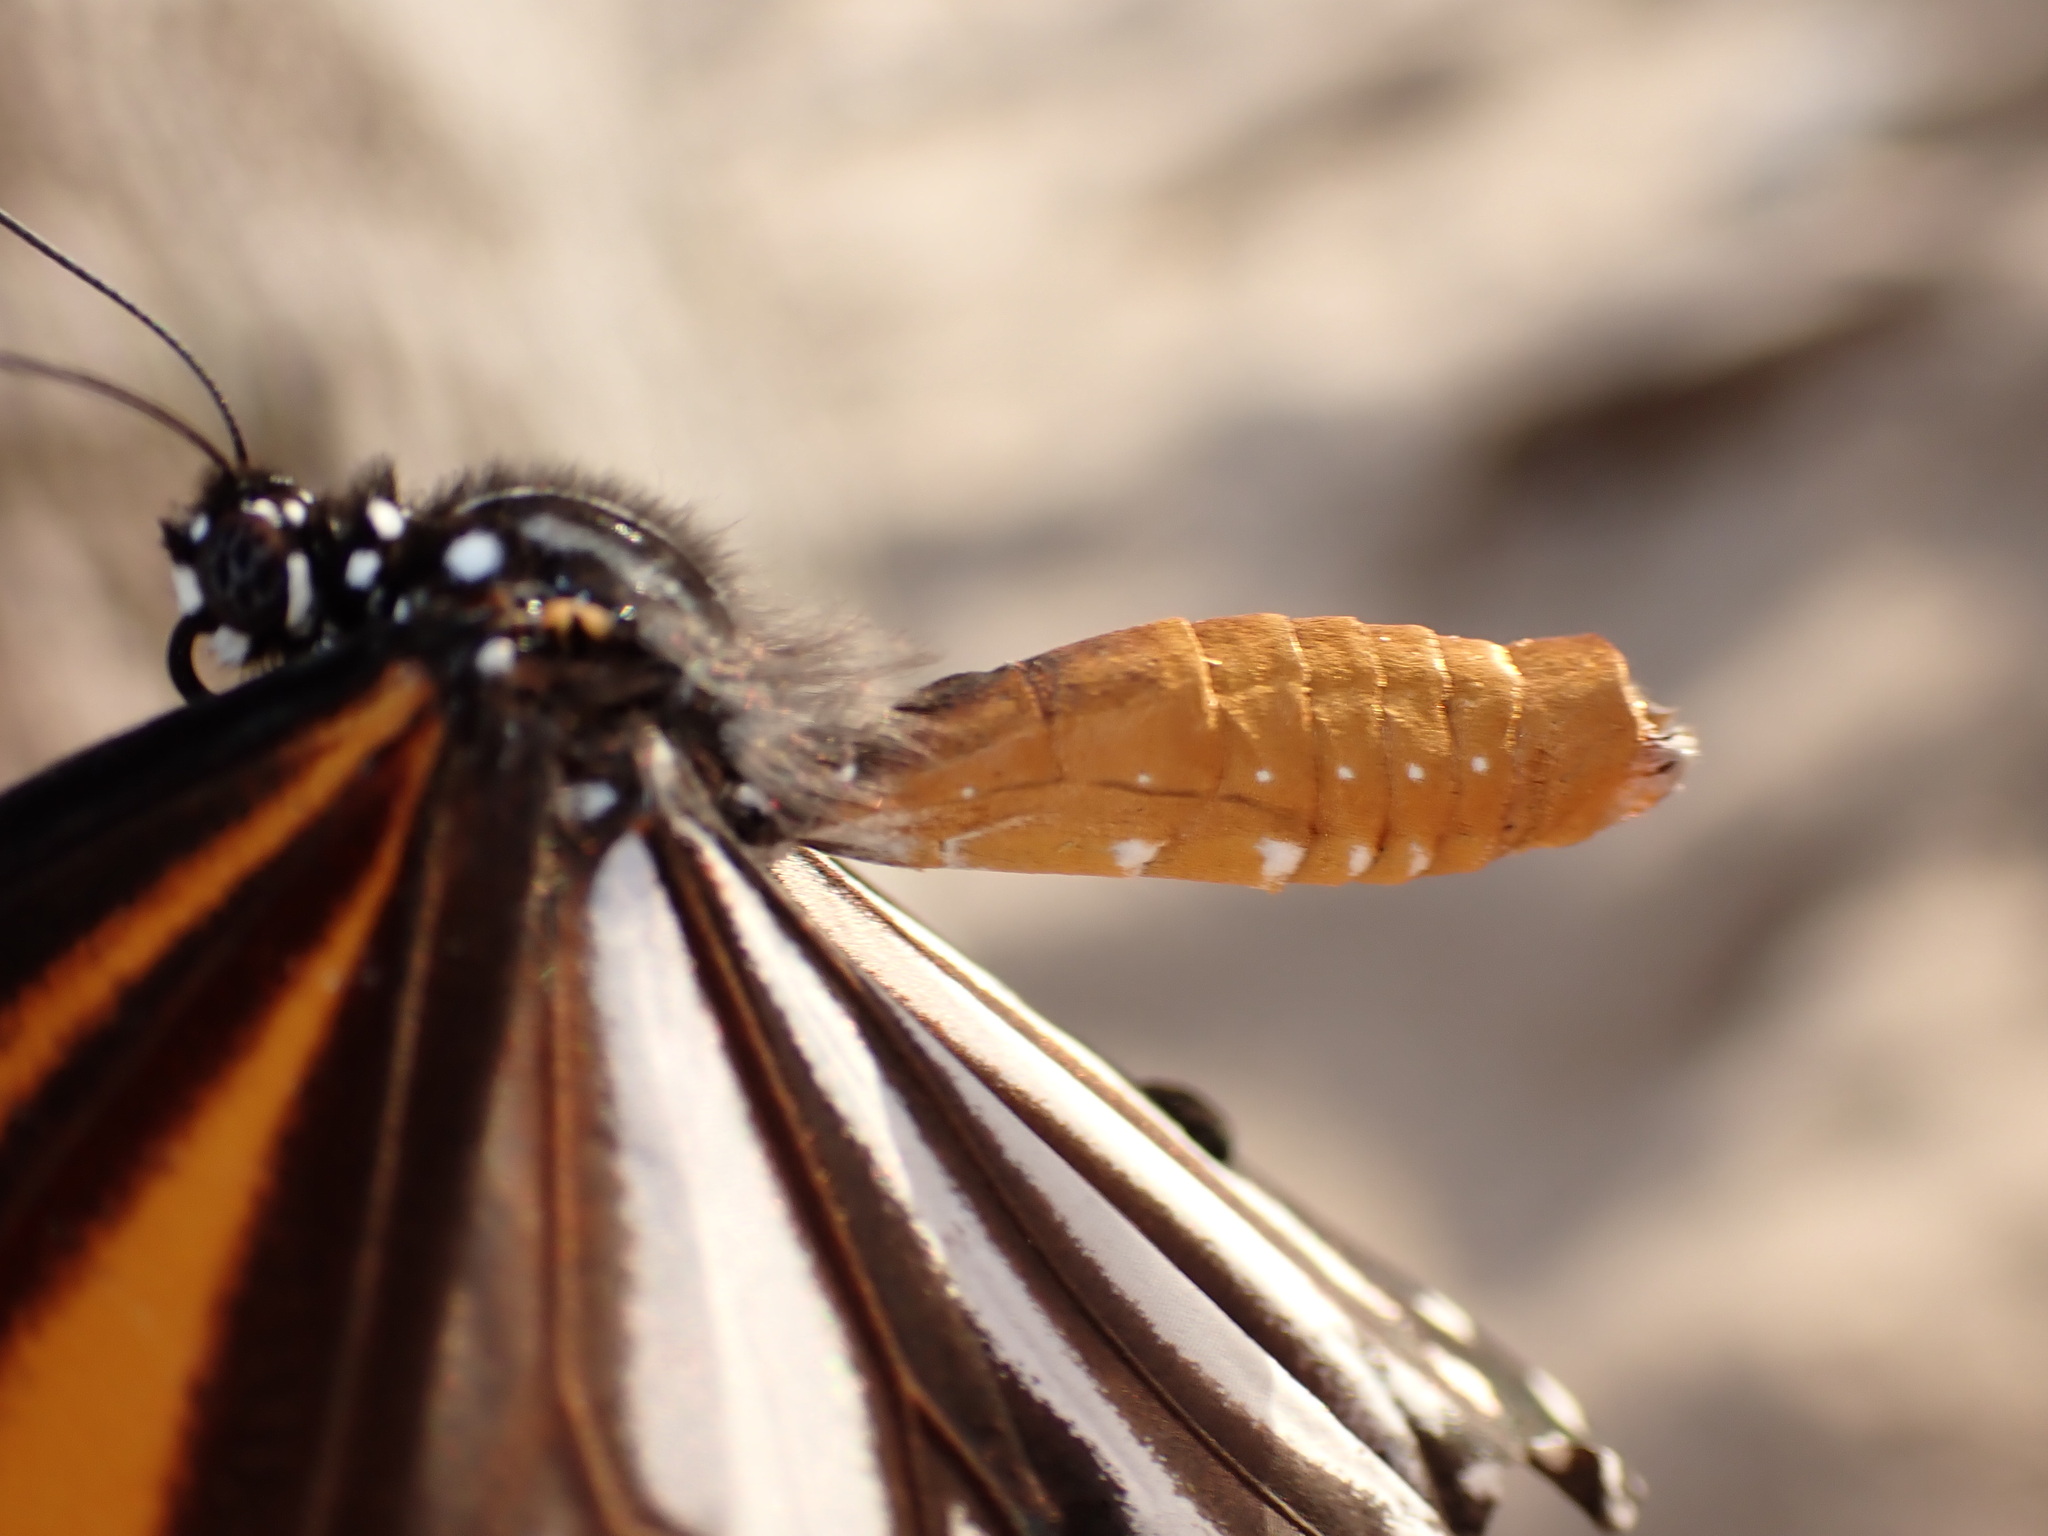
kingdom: Animalia
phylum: Arthropoda
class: Insecta
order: Lepidoptera
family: Nymphalidae
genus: Danaus
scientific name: Danaus melanippus
